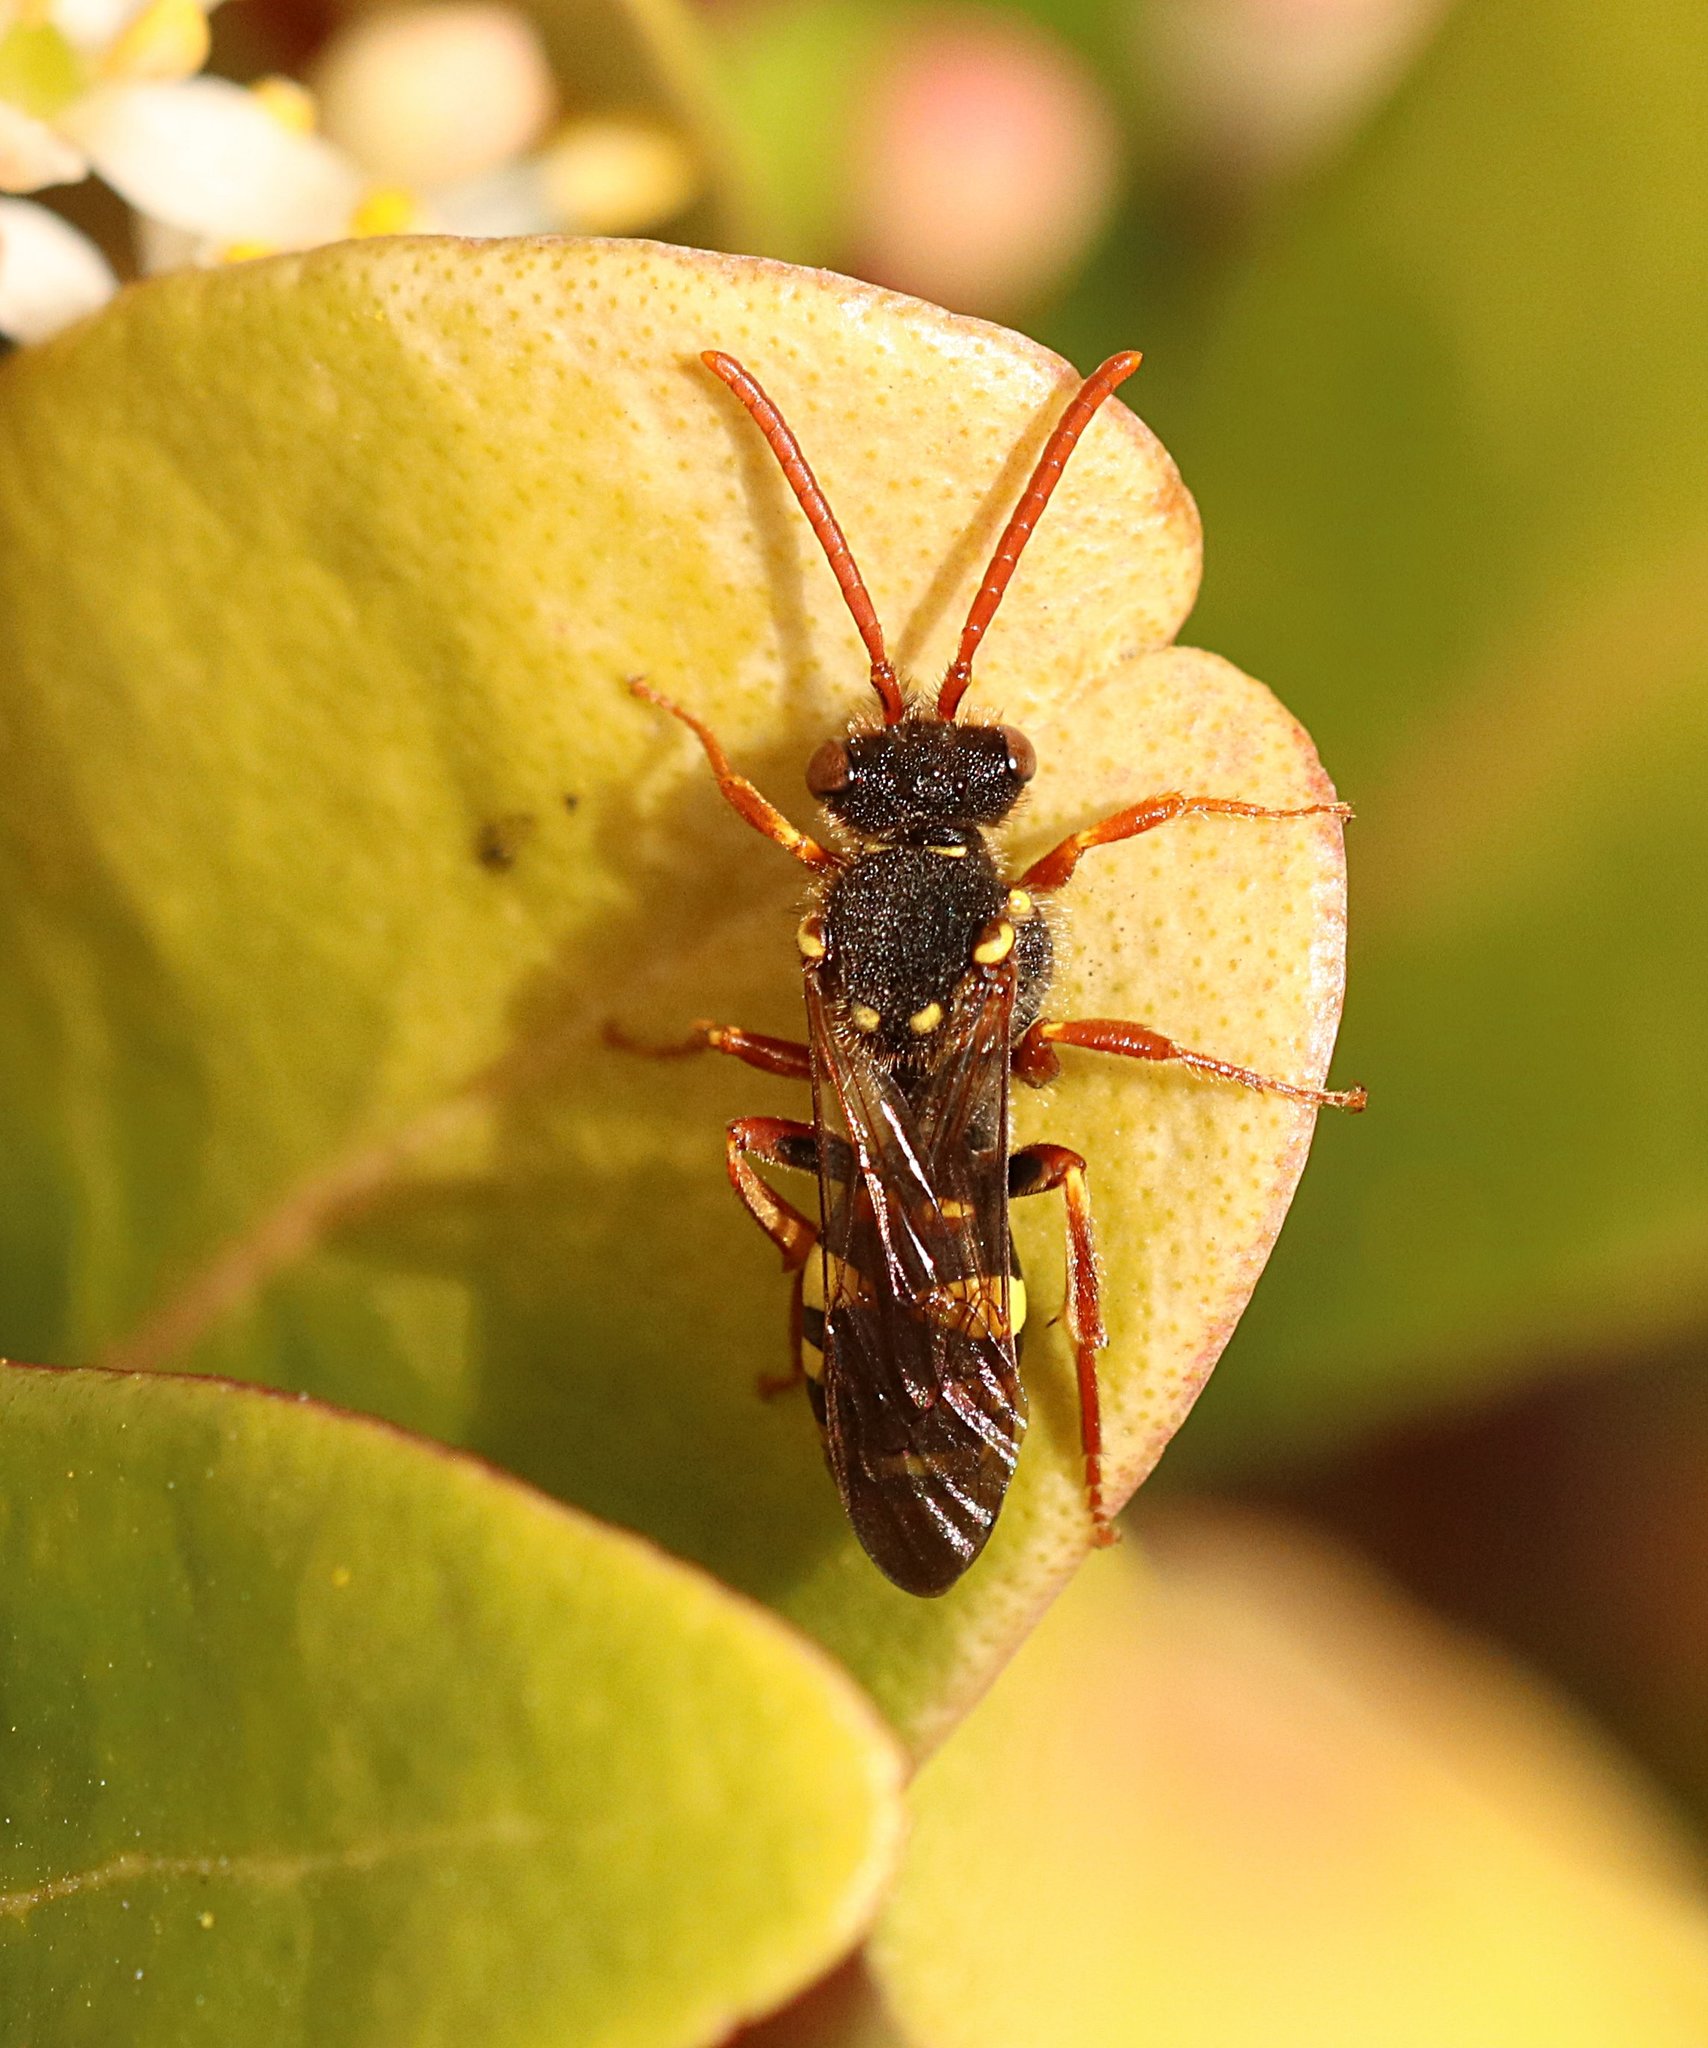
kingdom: Animalia
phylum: Arthropoda
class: Insecta
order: Hymenoptera
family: Apidae
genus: Nomada
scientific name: Nomada fulvicornis
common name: Orange-horned nomad bee
